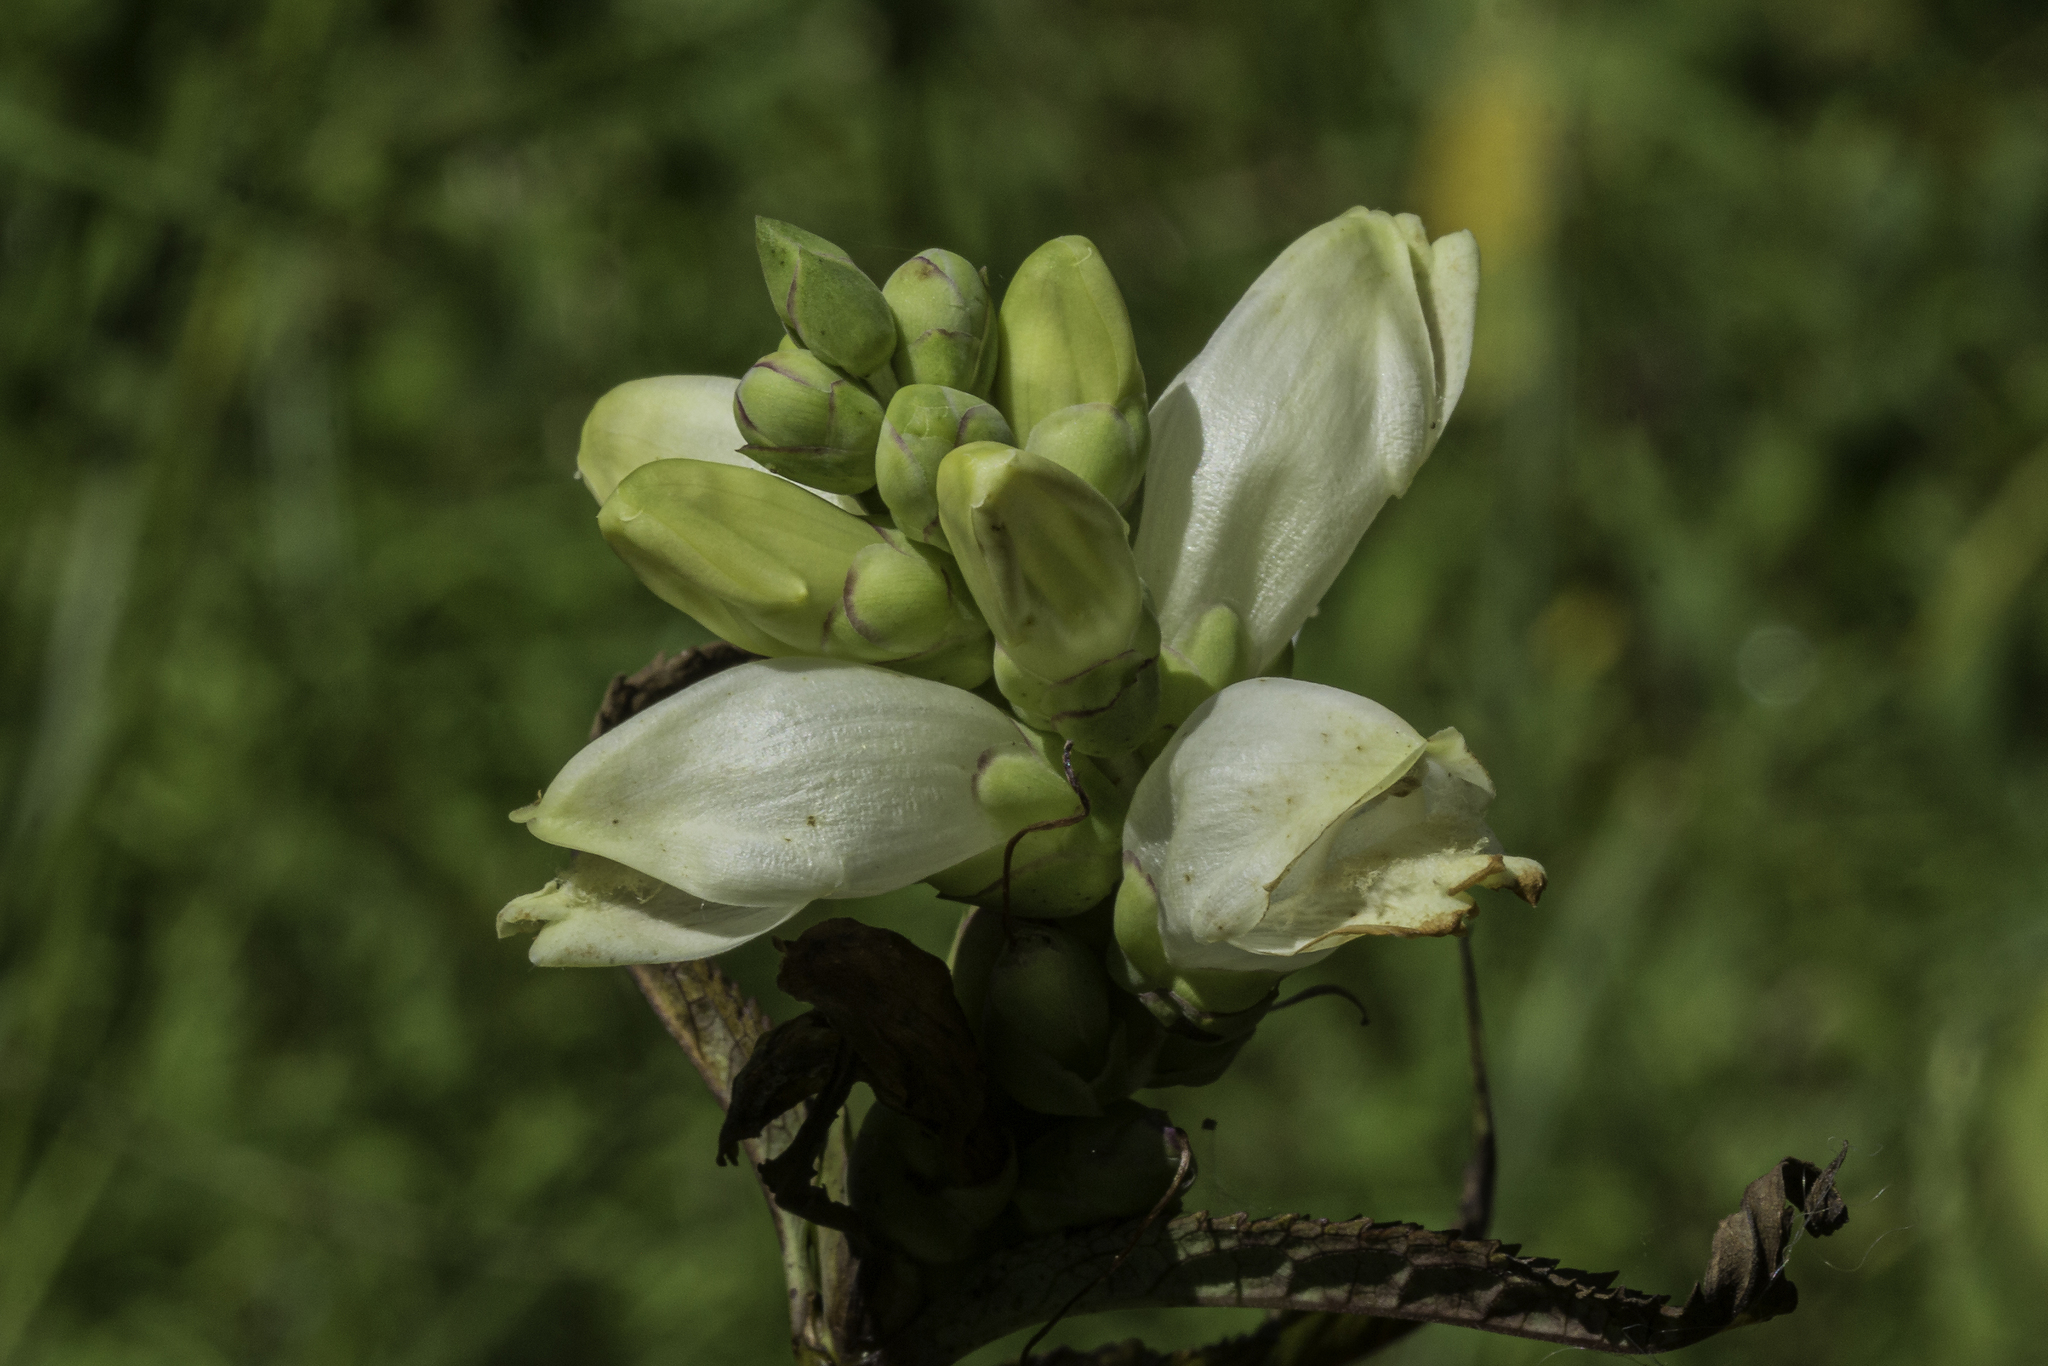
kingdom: Plantae
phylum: Tracheophyta
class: Magnoliopsida
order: Lamiales
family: Plantaginaceae
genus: Chelone
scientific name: Chelone glabra
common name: Snakehead
